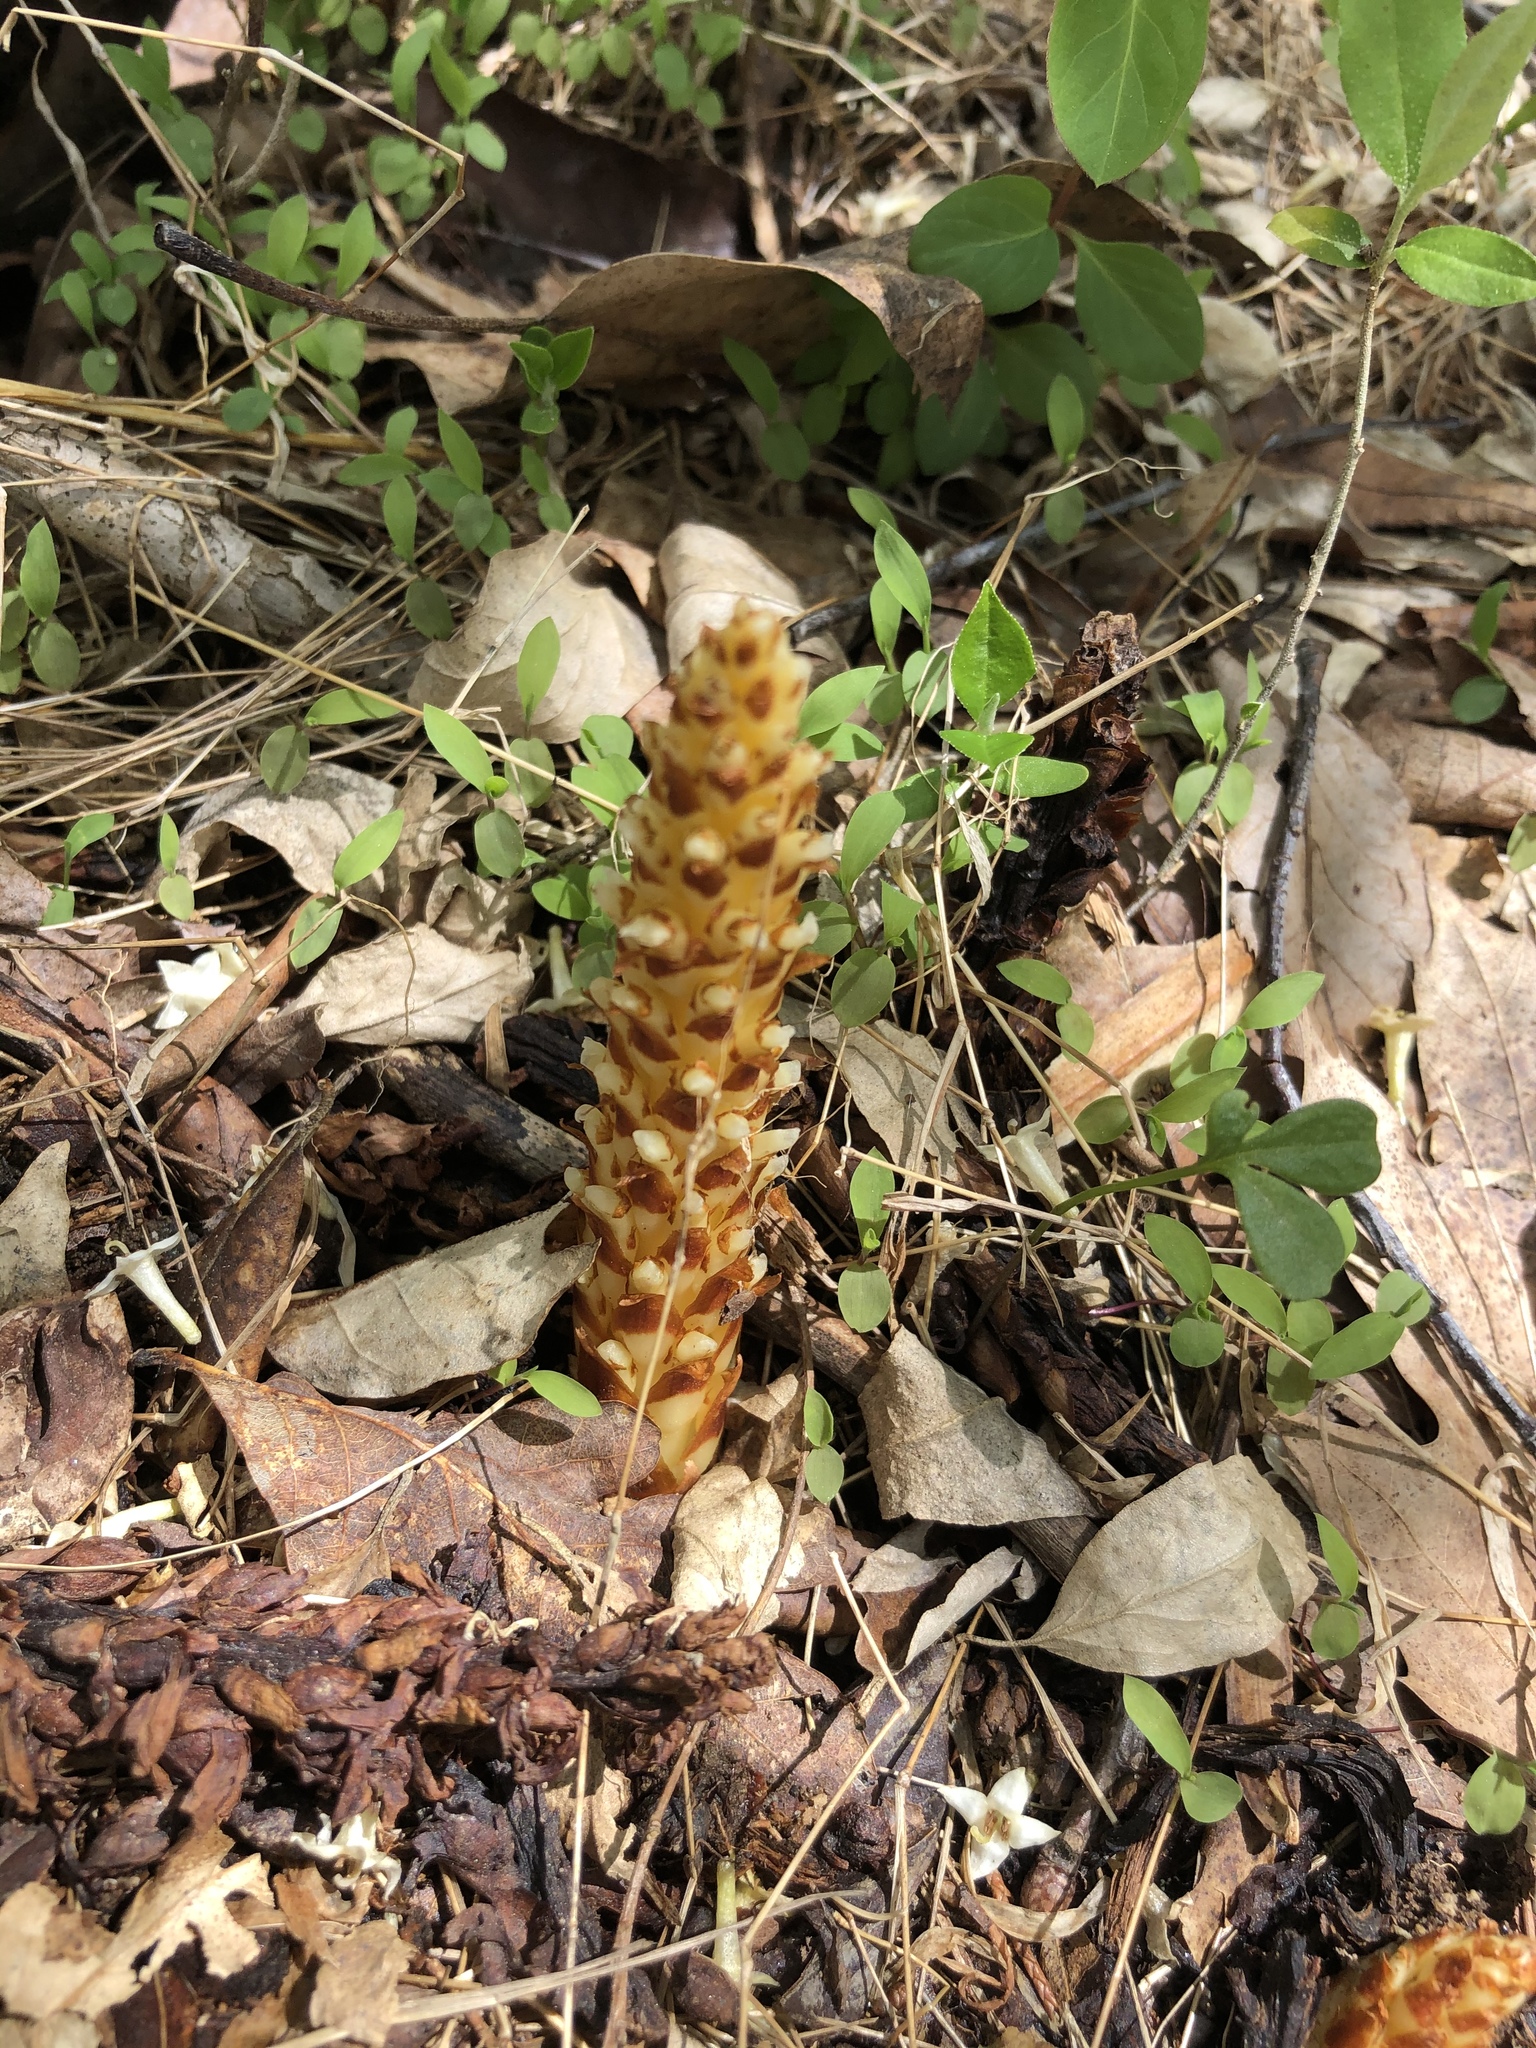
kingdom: Plantae
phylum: Tracheophyta
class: Magnoliopsida
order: Lamiales
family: Orobanchaceae
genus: Conopholis
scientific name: Conopholis americana
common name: American cancer-root
